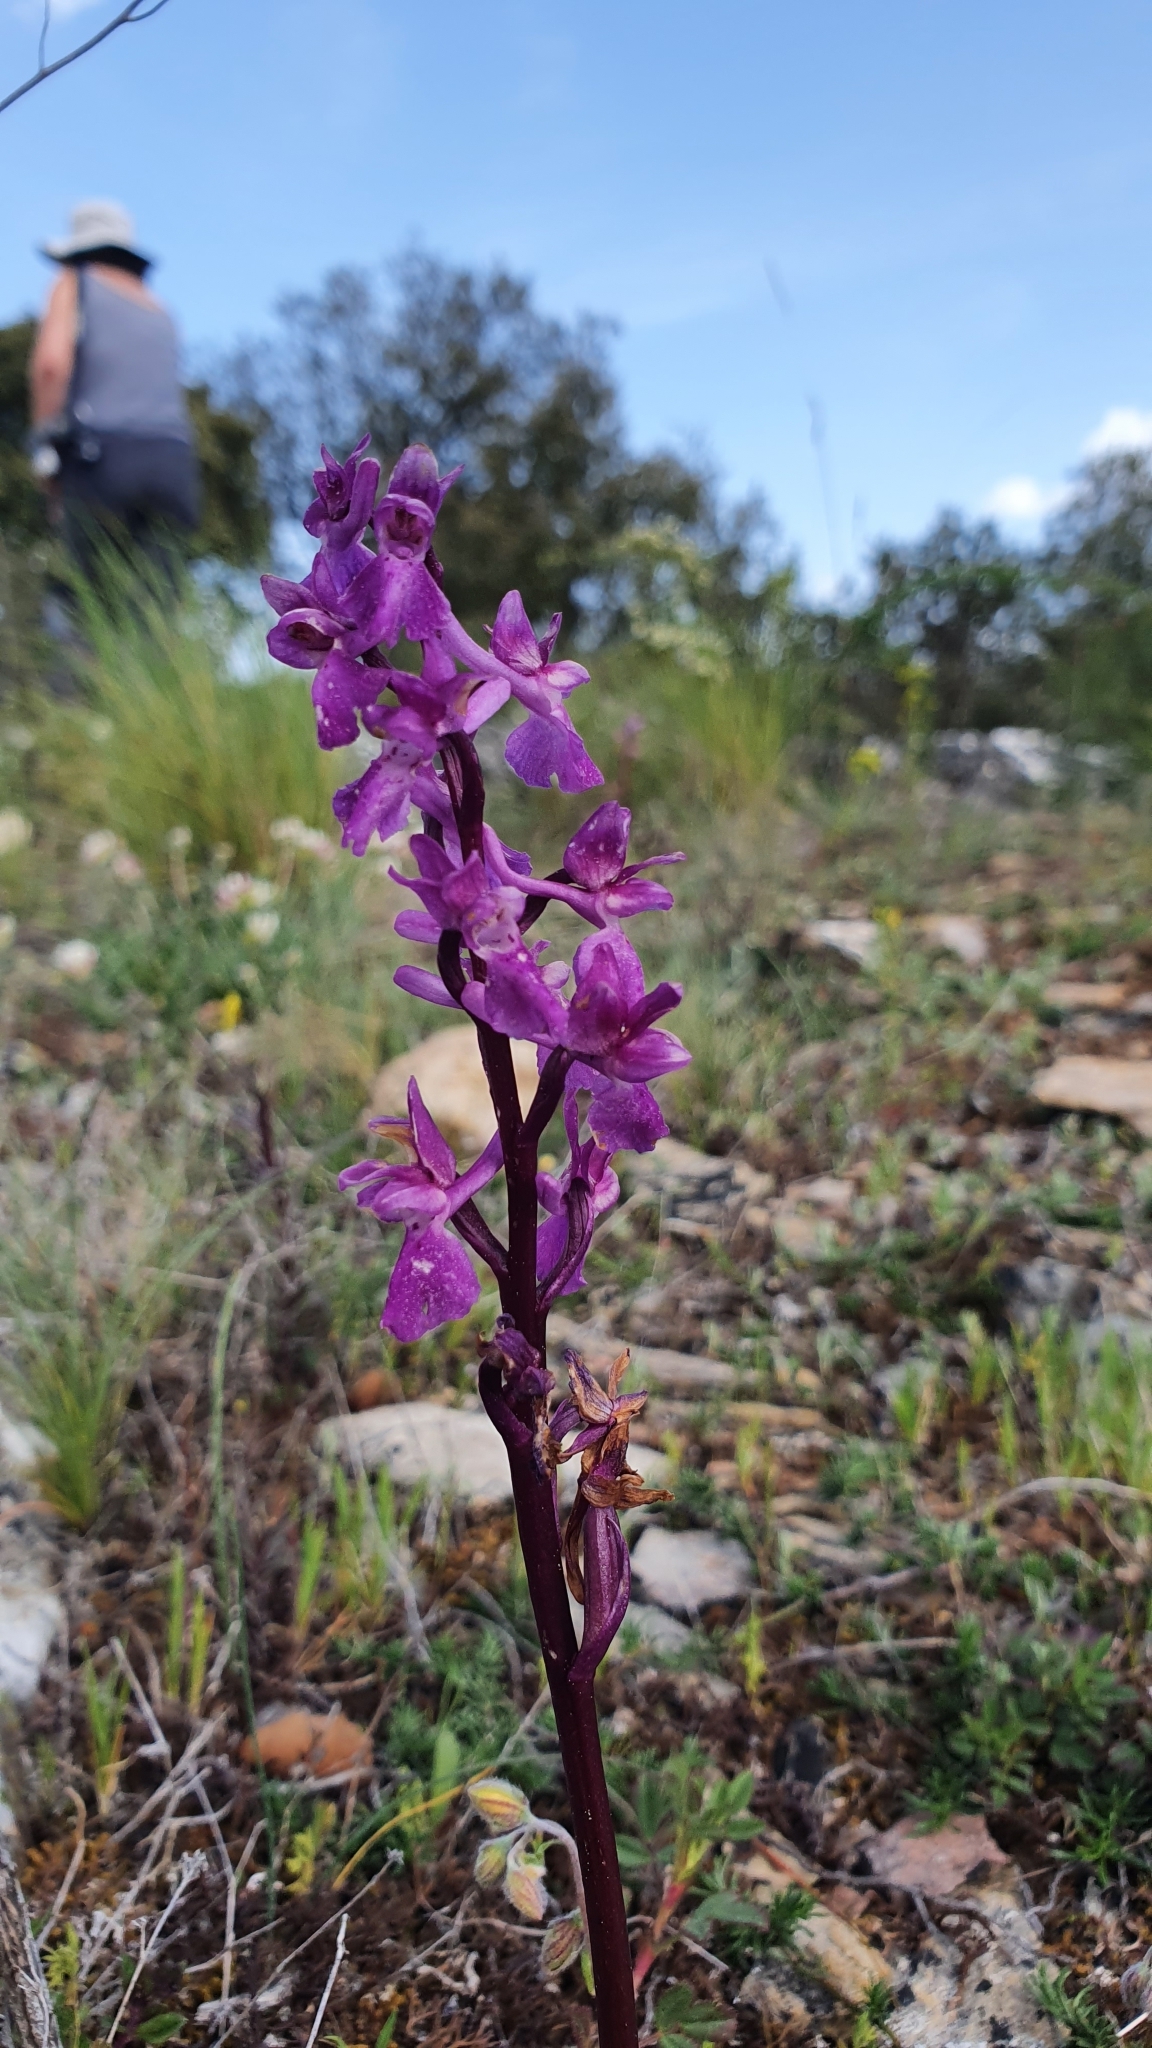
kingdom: Plantae
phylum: Tracheophyta
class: Liliopsida
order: Asparagales
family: Orchidaceae
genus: Orchis
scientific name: Orchis mascula
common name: Early-purple orchid
